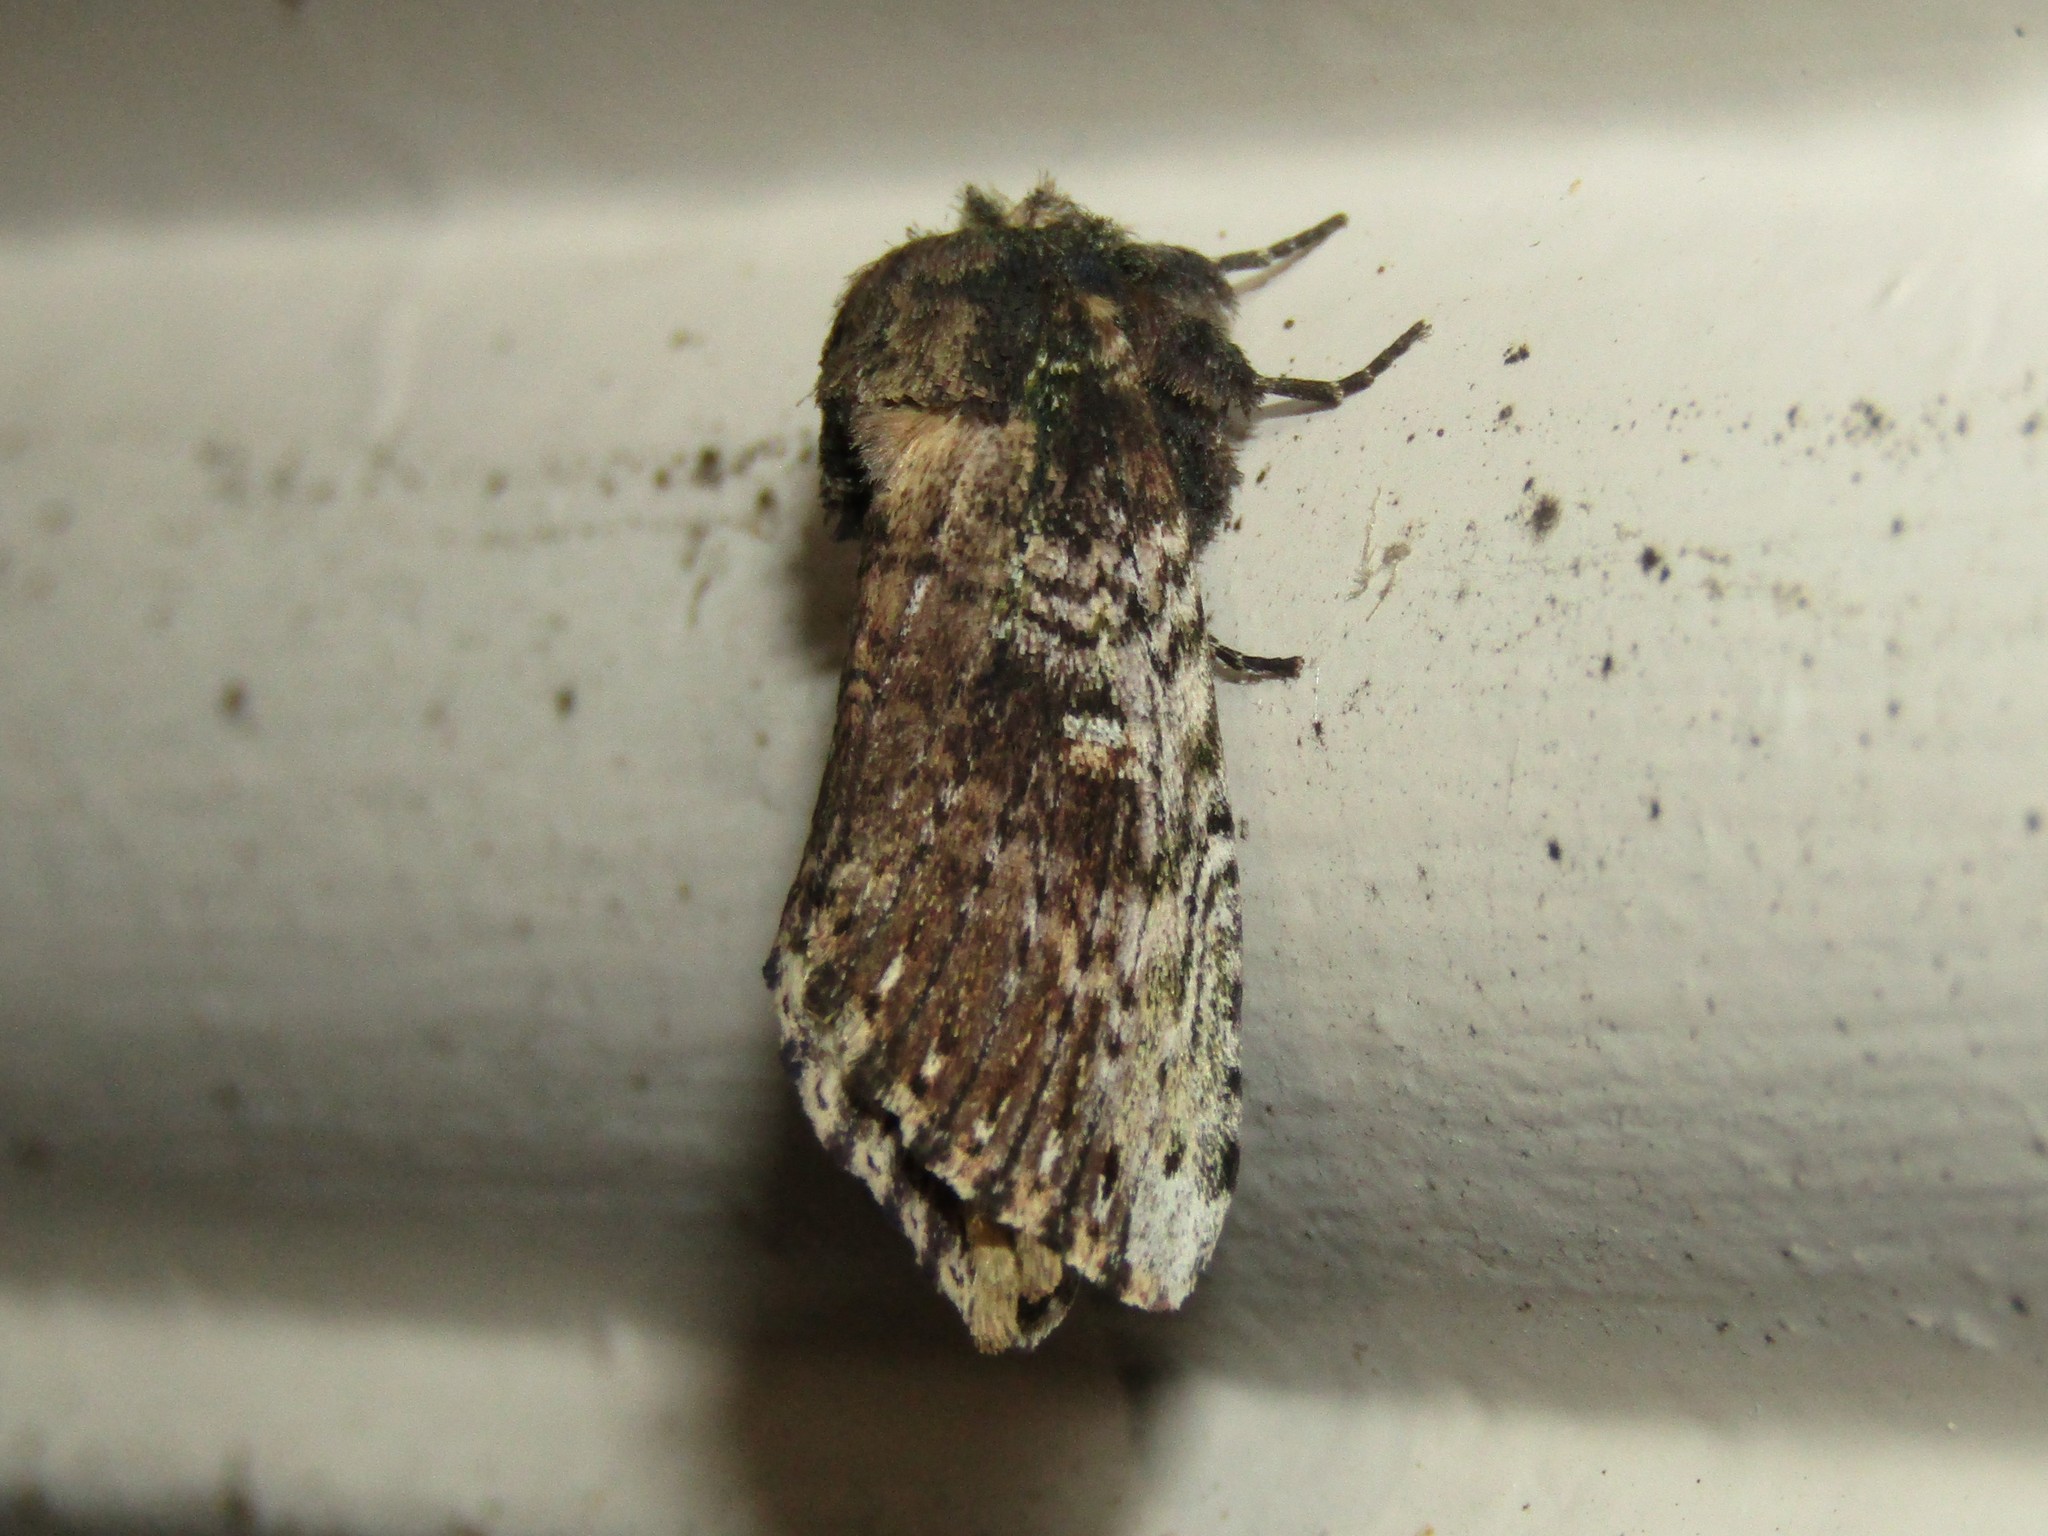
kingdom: Animalia
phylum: Arthropoda
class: Insecta
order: Lepidoptera
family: Notodontidae
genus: Schizura
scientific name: Schizura ipomaeae
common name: Morning-glory prominent
